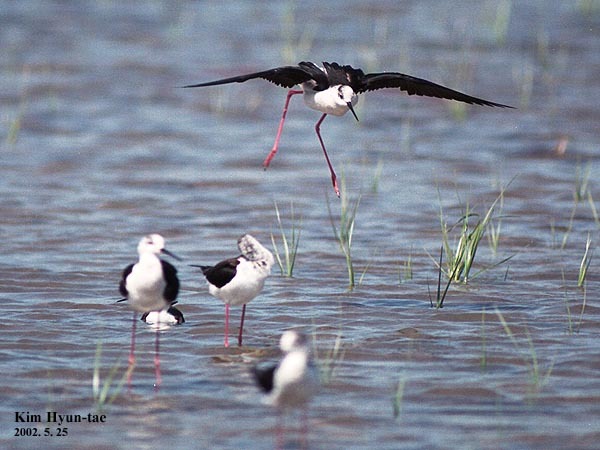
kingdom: Animalia
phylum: Chordata
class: Aves
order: Charadriiformes
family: Recurvirostridae
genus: Himantopus
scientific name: Himantopus himantopus
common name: Black-winged stilt
